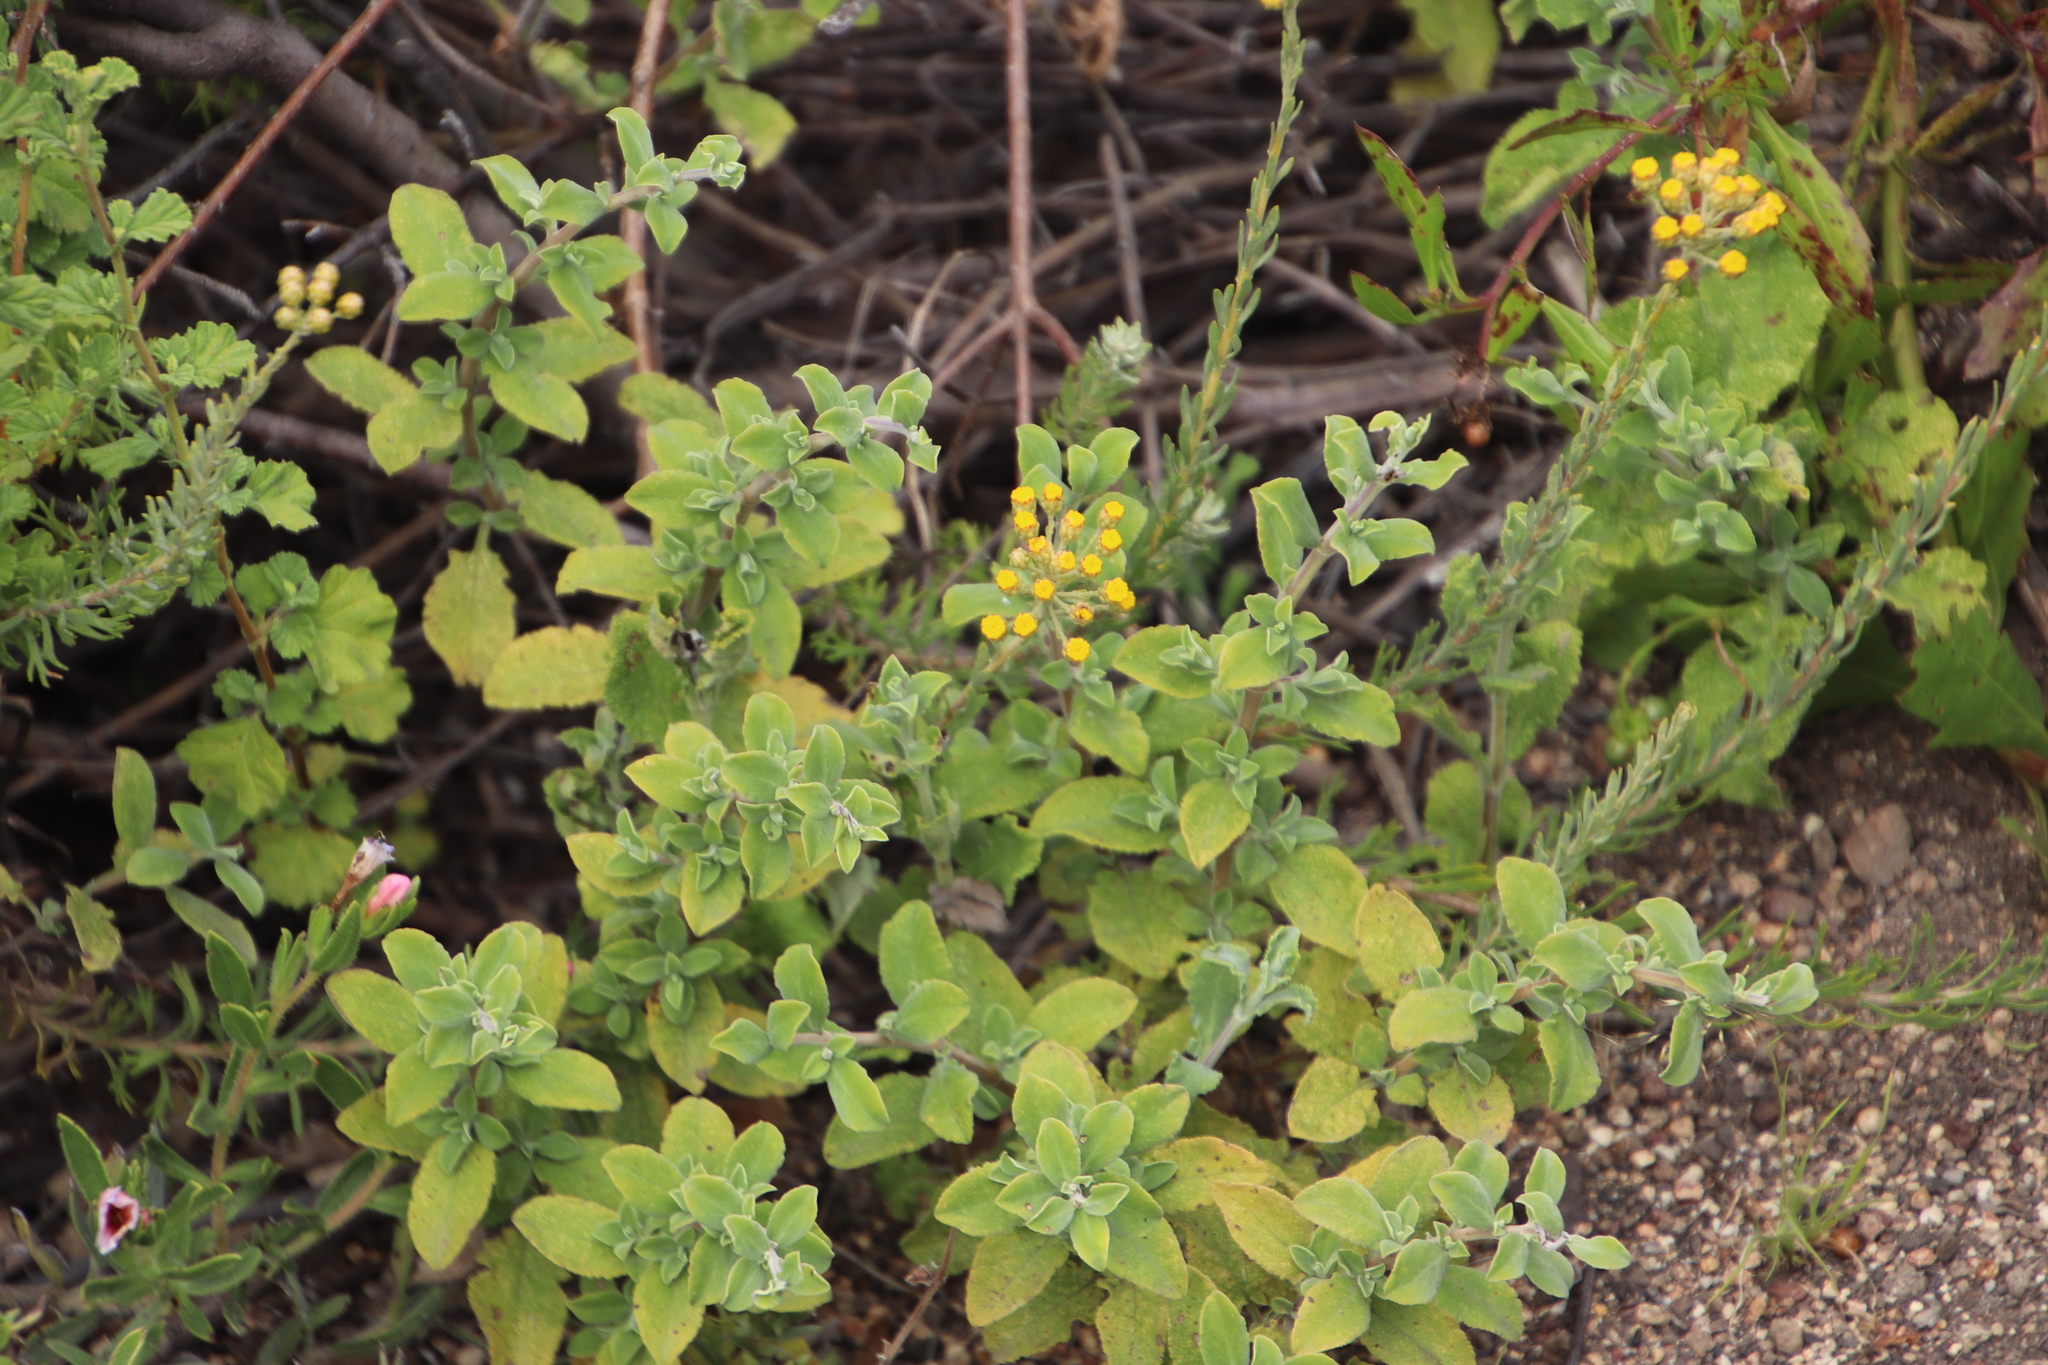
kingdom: Plantae
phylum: Tracheophyta
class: Magnoliopsida
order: Asterales
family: Asteraceae
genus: Athanasia
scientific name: Athanasia trifurcata
